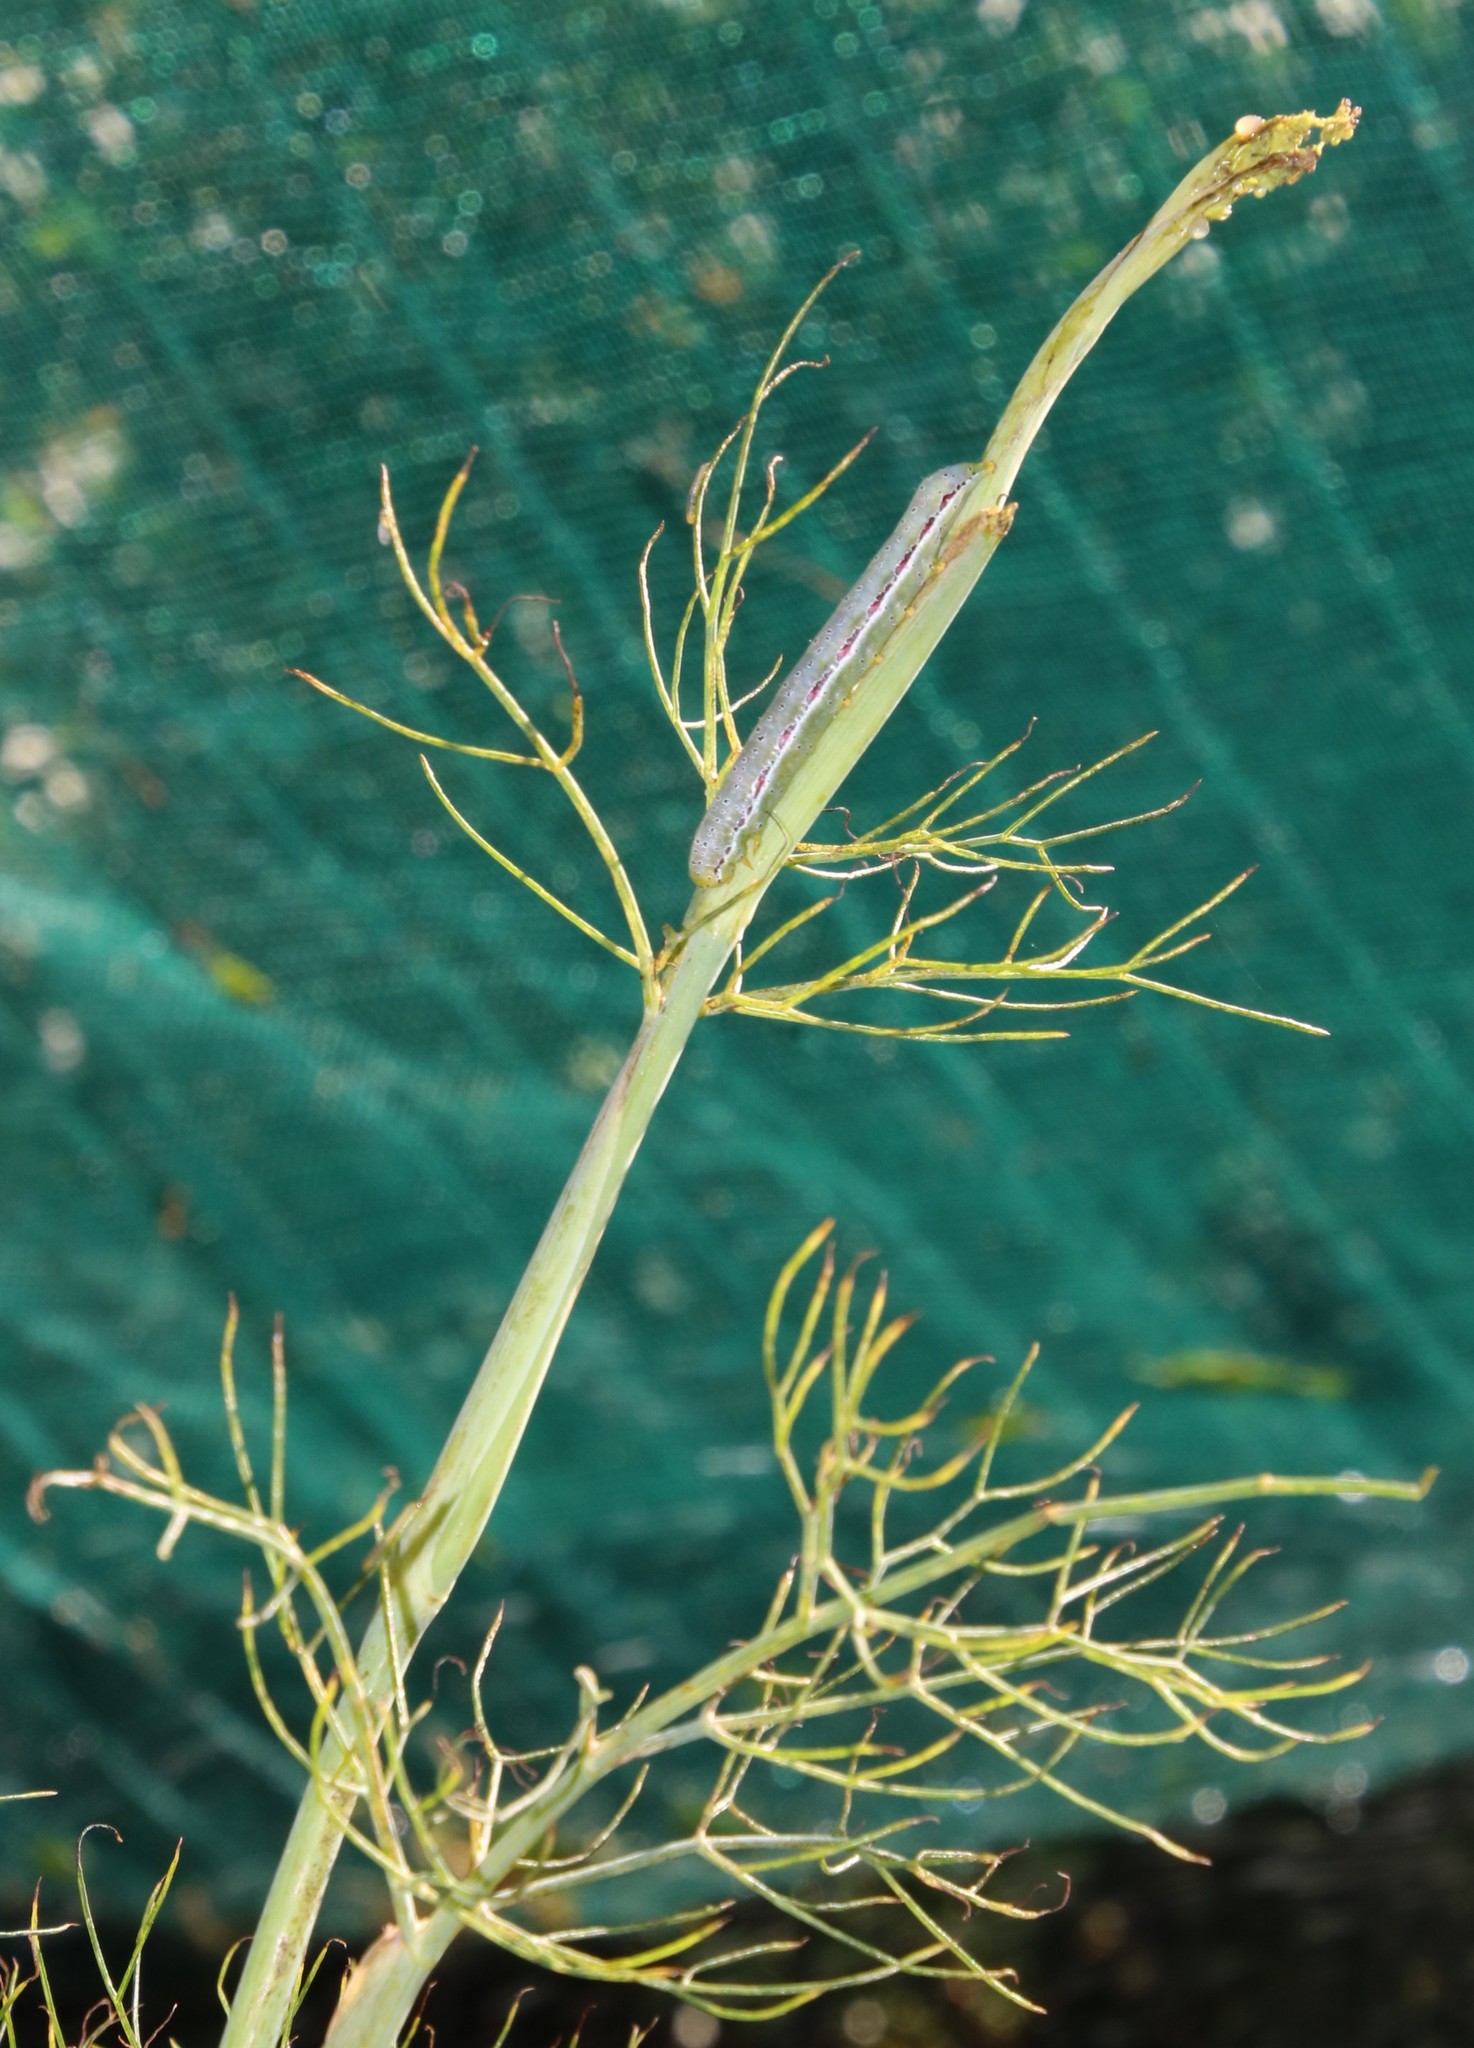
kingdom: Animalia
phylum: Arthropoda
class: Insecta
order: Lepidoptera
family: Noctuidae
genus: Compsotata
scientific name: Compsotata elegantissima
